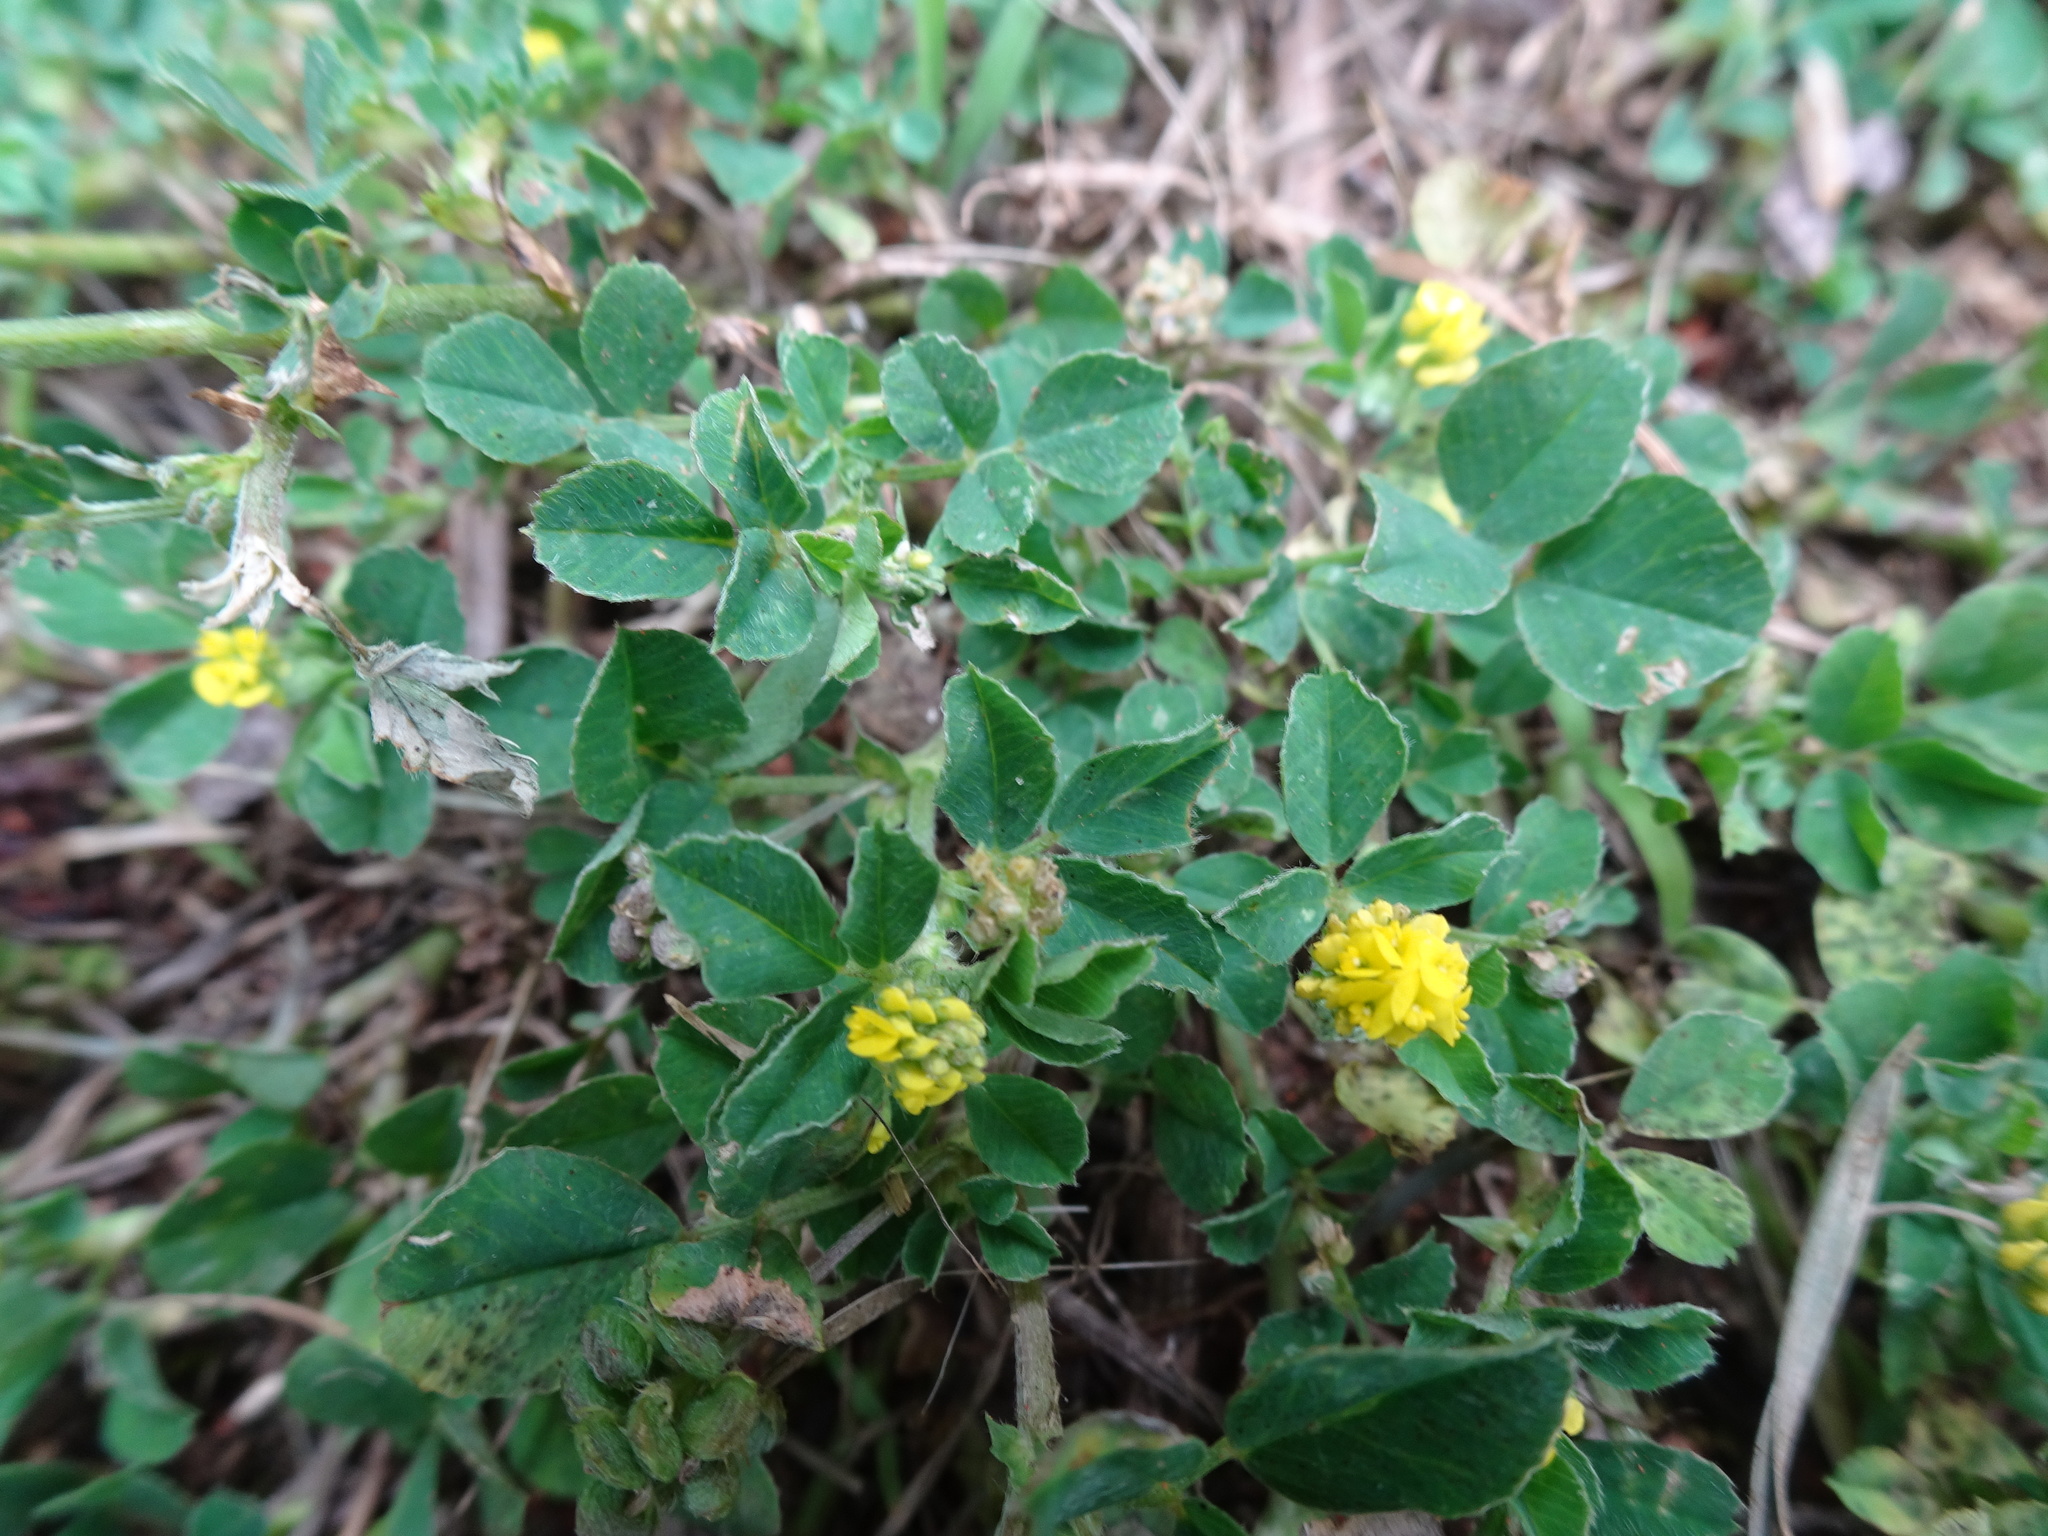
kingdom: Plantae
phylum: Tracheophyta
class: Magnoliopsida
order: Fabales
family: Fabaceae
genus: Medicago
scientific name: Medicago lupulina
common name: Black medick
